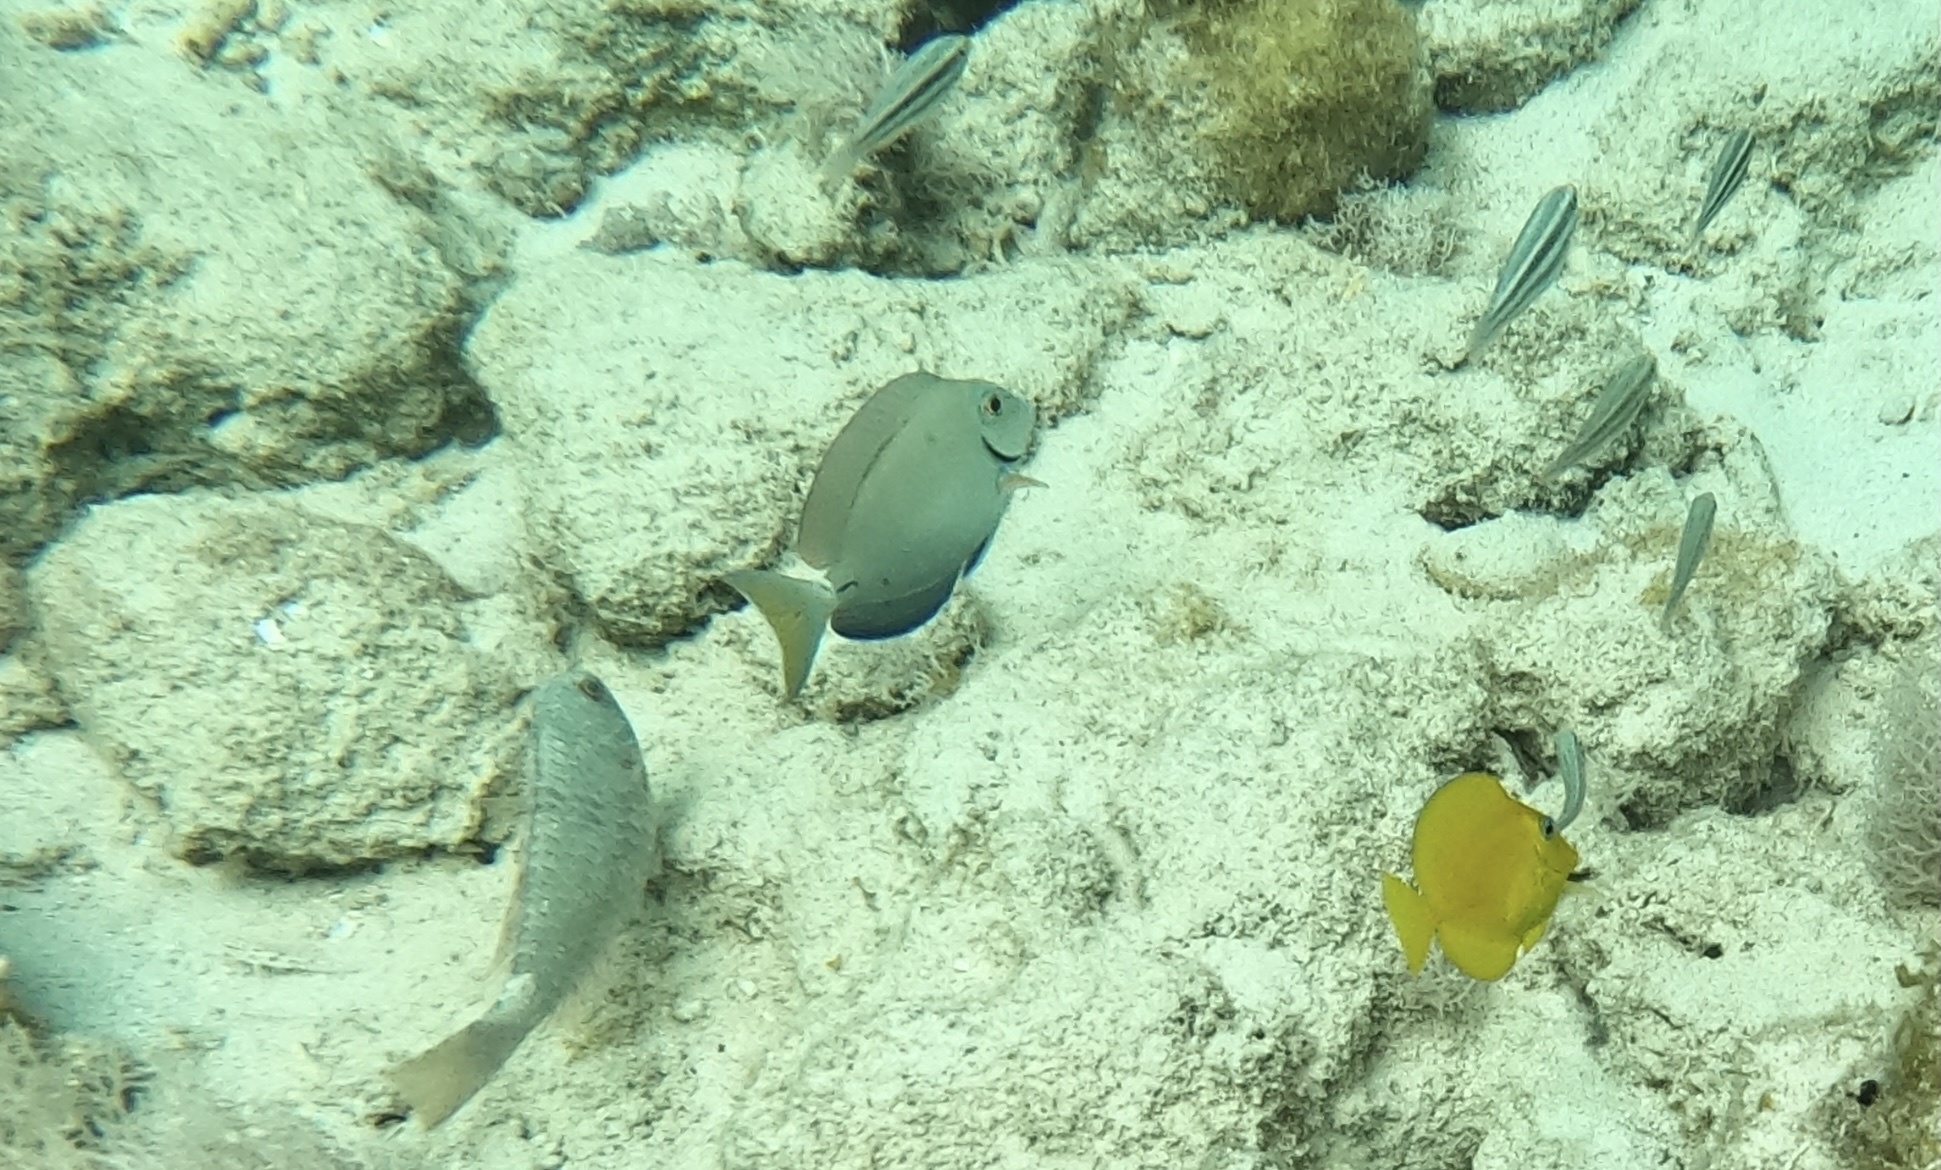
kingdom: Animalia
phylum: Chordata
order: Perciformes
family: Acanthuridae
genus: Acanthurus
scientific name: Acanthurus bahianus
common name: Ocean surgeon
